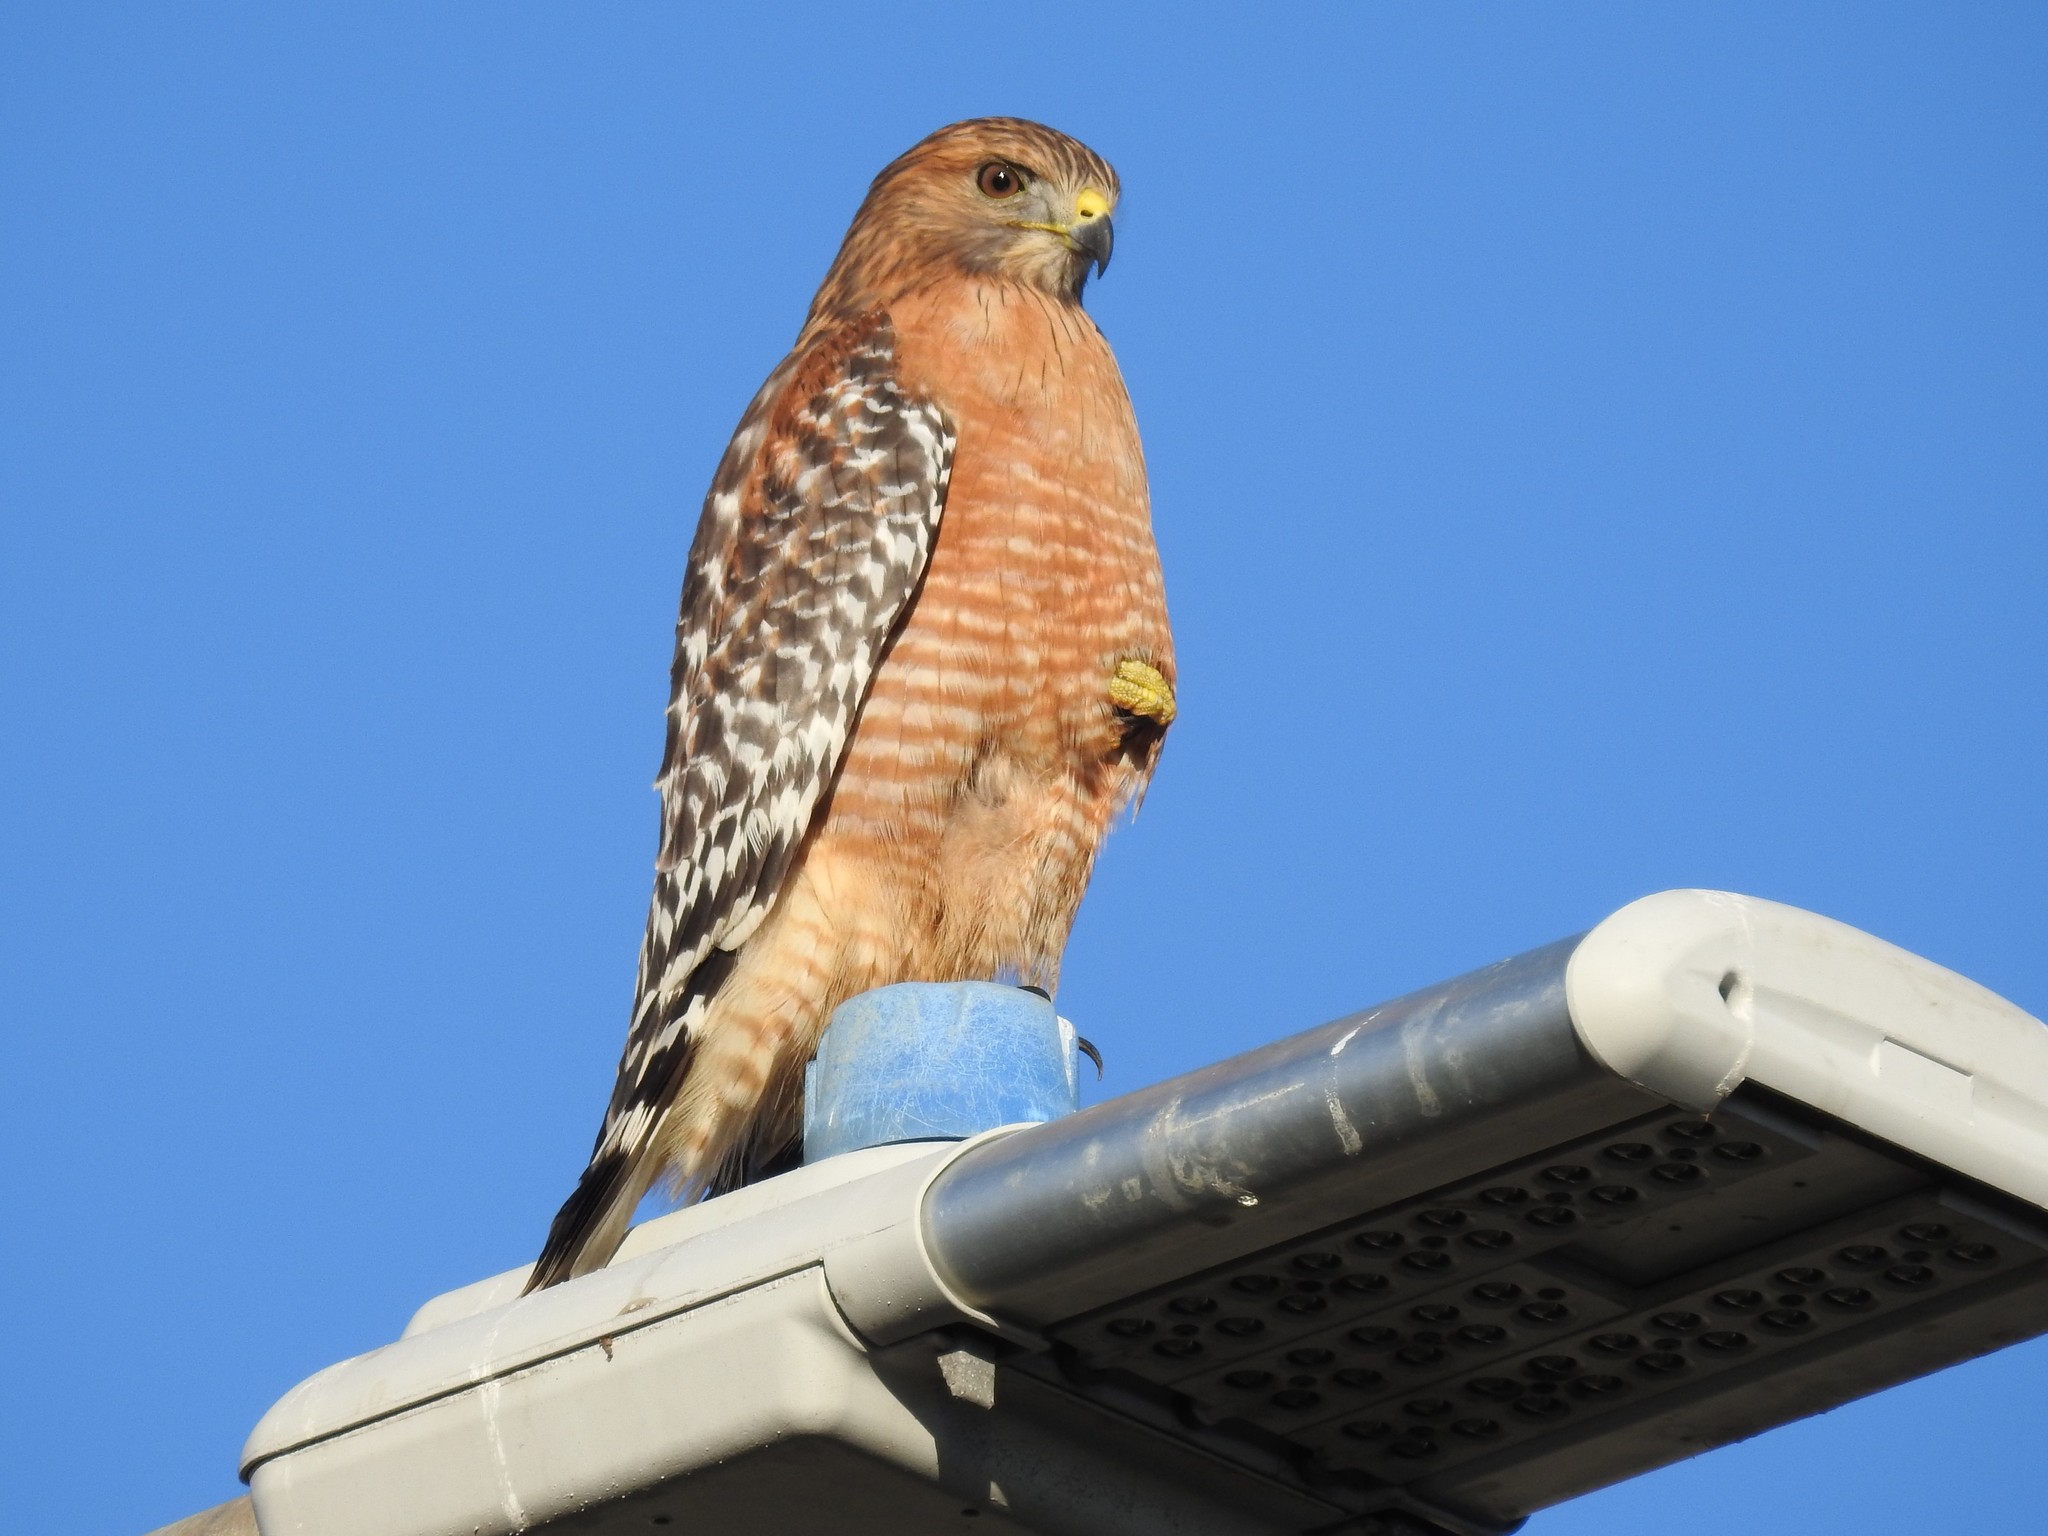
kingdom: Animalia
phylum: Chordata
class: Aves
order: Accipitriformes
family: Accipitridae
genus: Buteo
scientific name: Buteo lineatus
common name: Red-shouldered hawk
